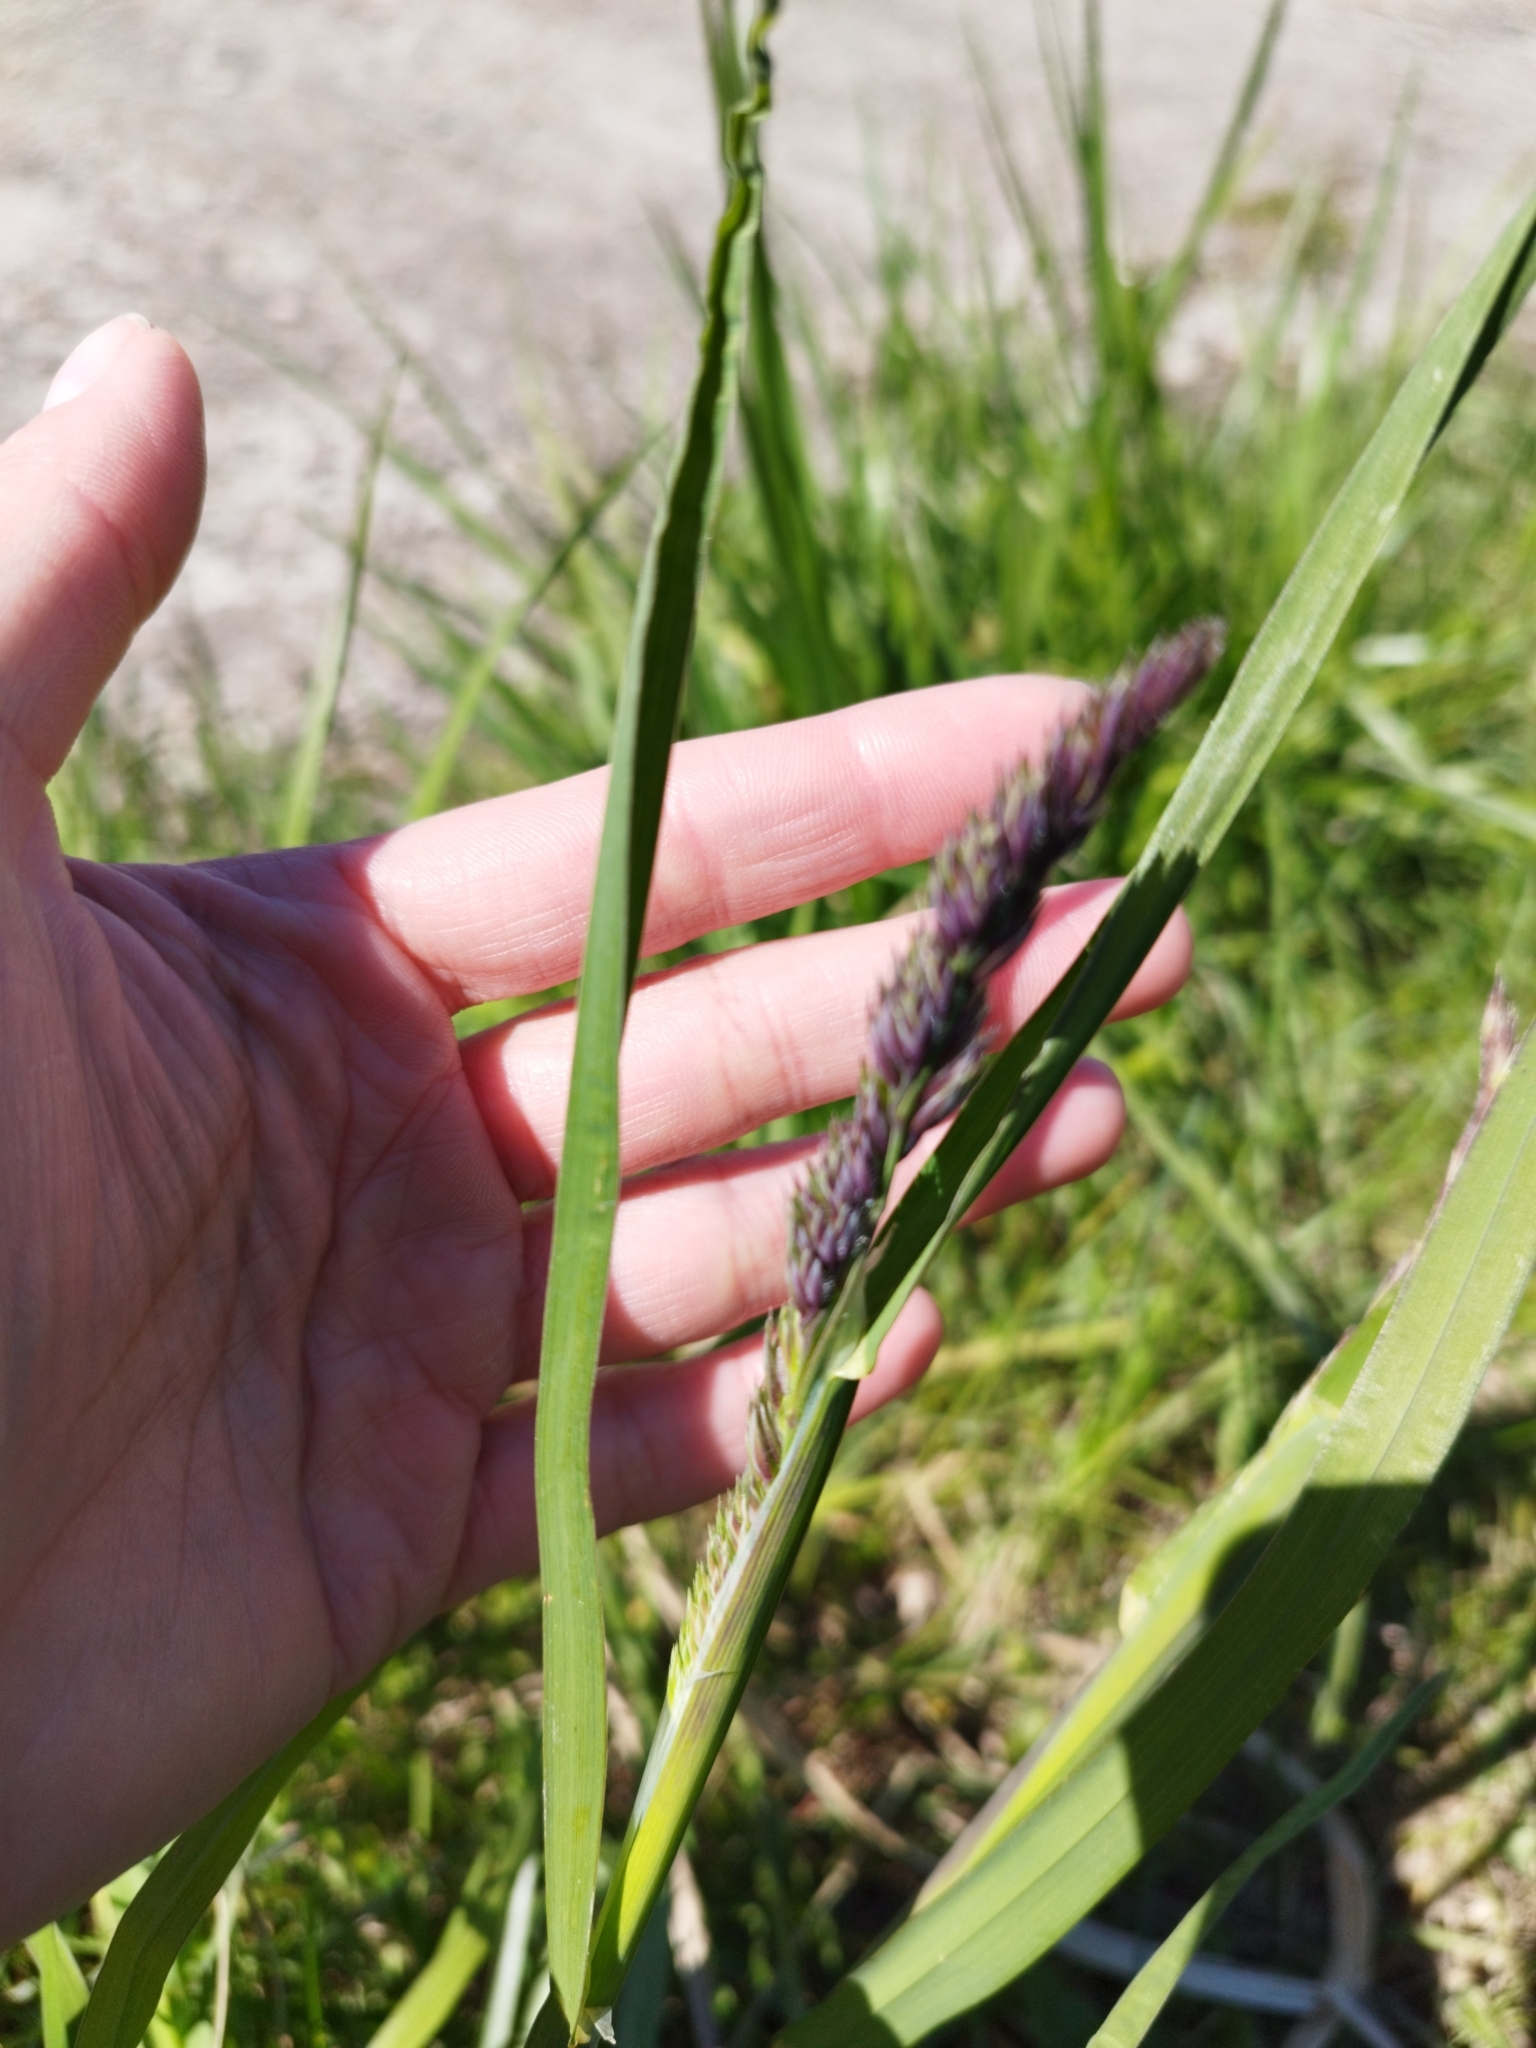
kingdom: Plantae
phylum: Tracheophyta
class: Liliopsida
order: Poales
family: Poaceae
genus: Dactylis
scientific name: Dactylis glomerata
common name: Orchardgrass
